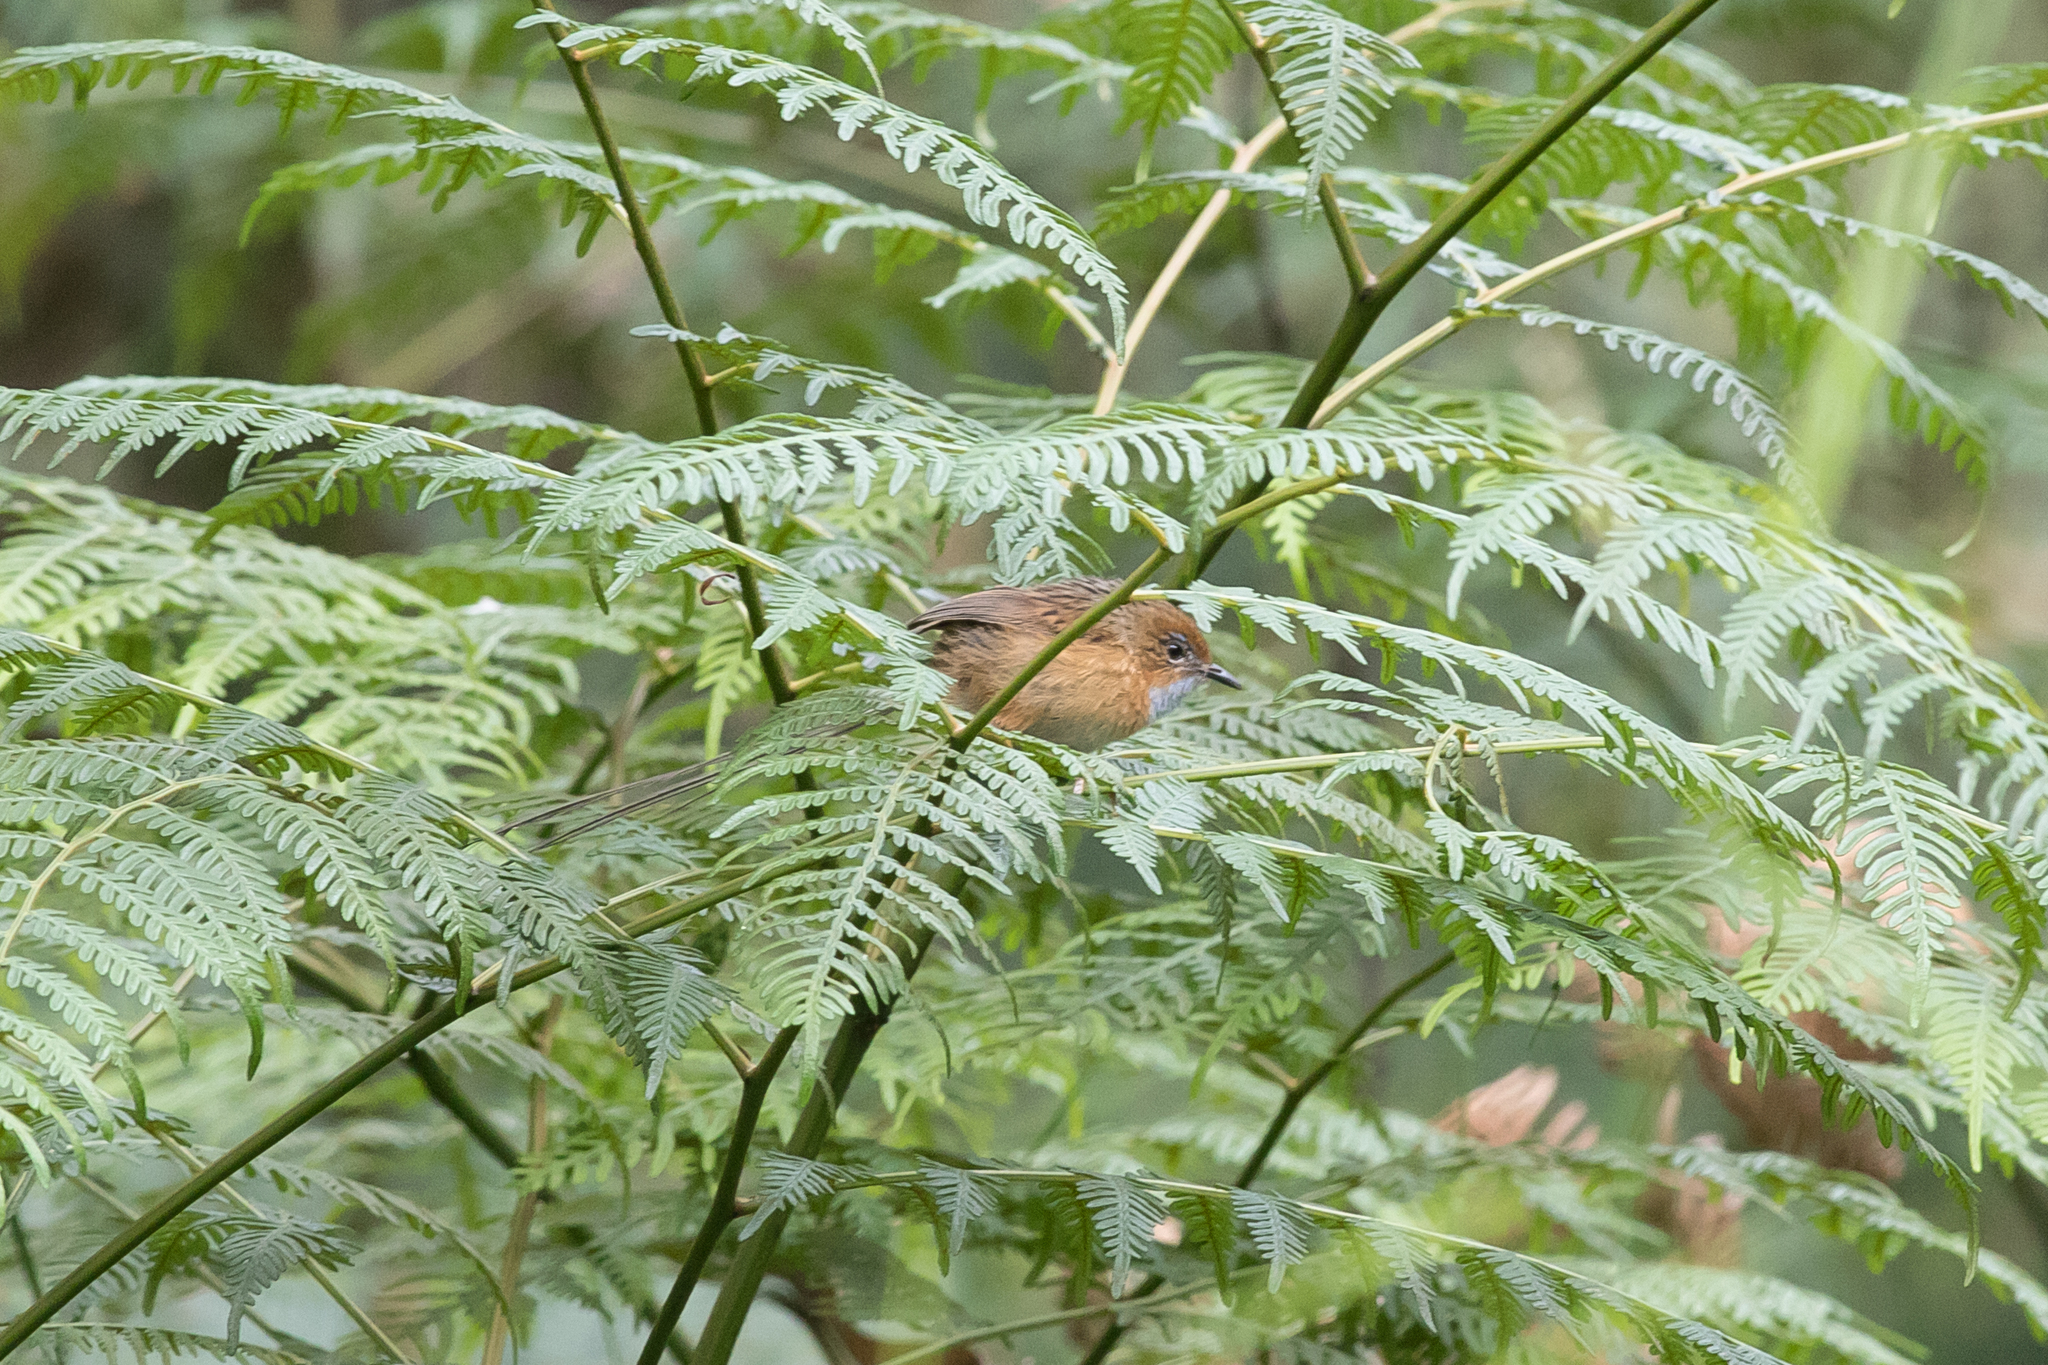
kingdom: Animalia
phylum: Chordata
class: Aves
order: Passeriformes
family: Maluridae
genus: Stipiturus
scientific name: Stipiturus malachurus
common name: Southern emu-wren
